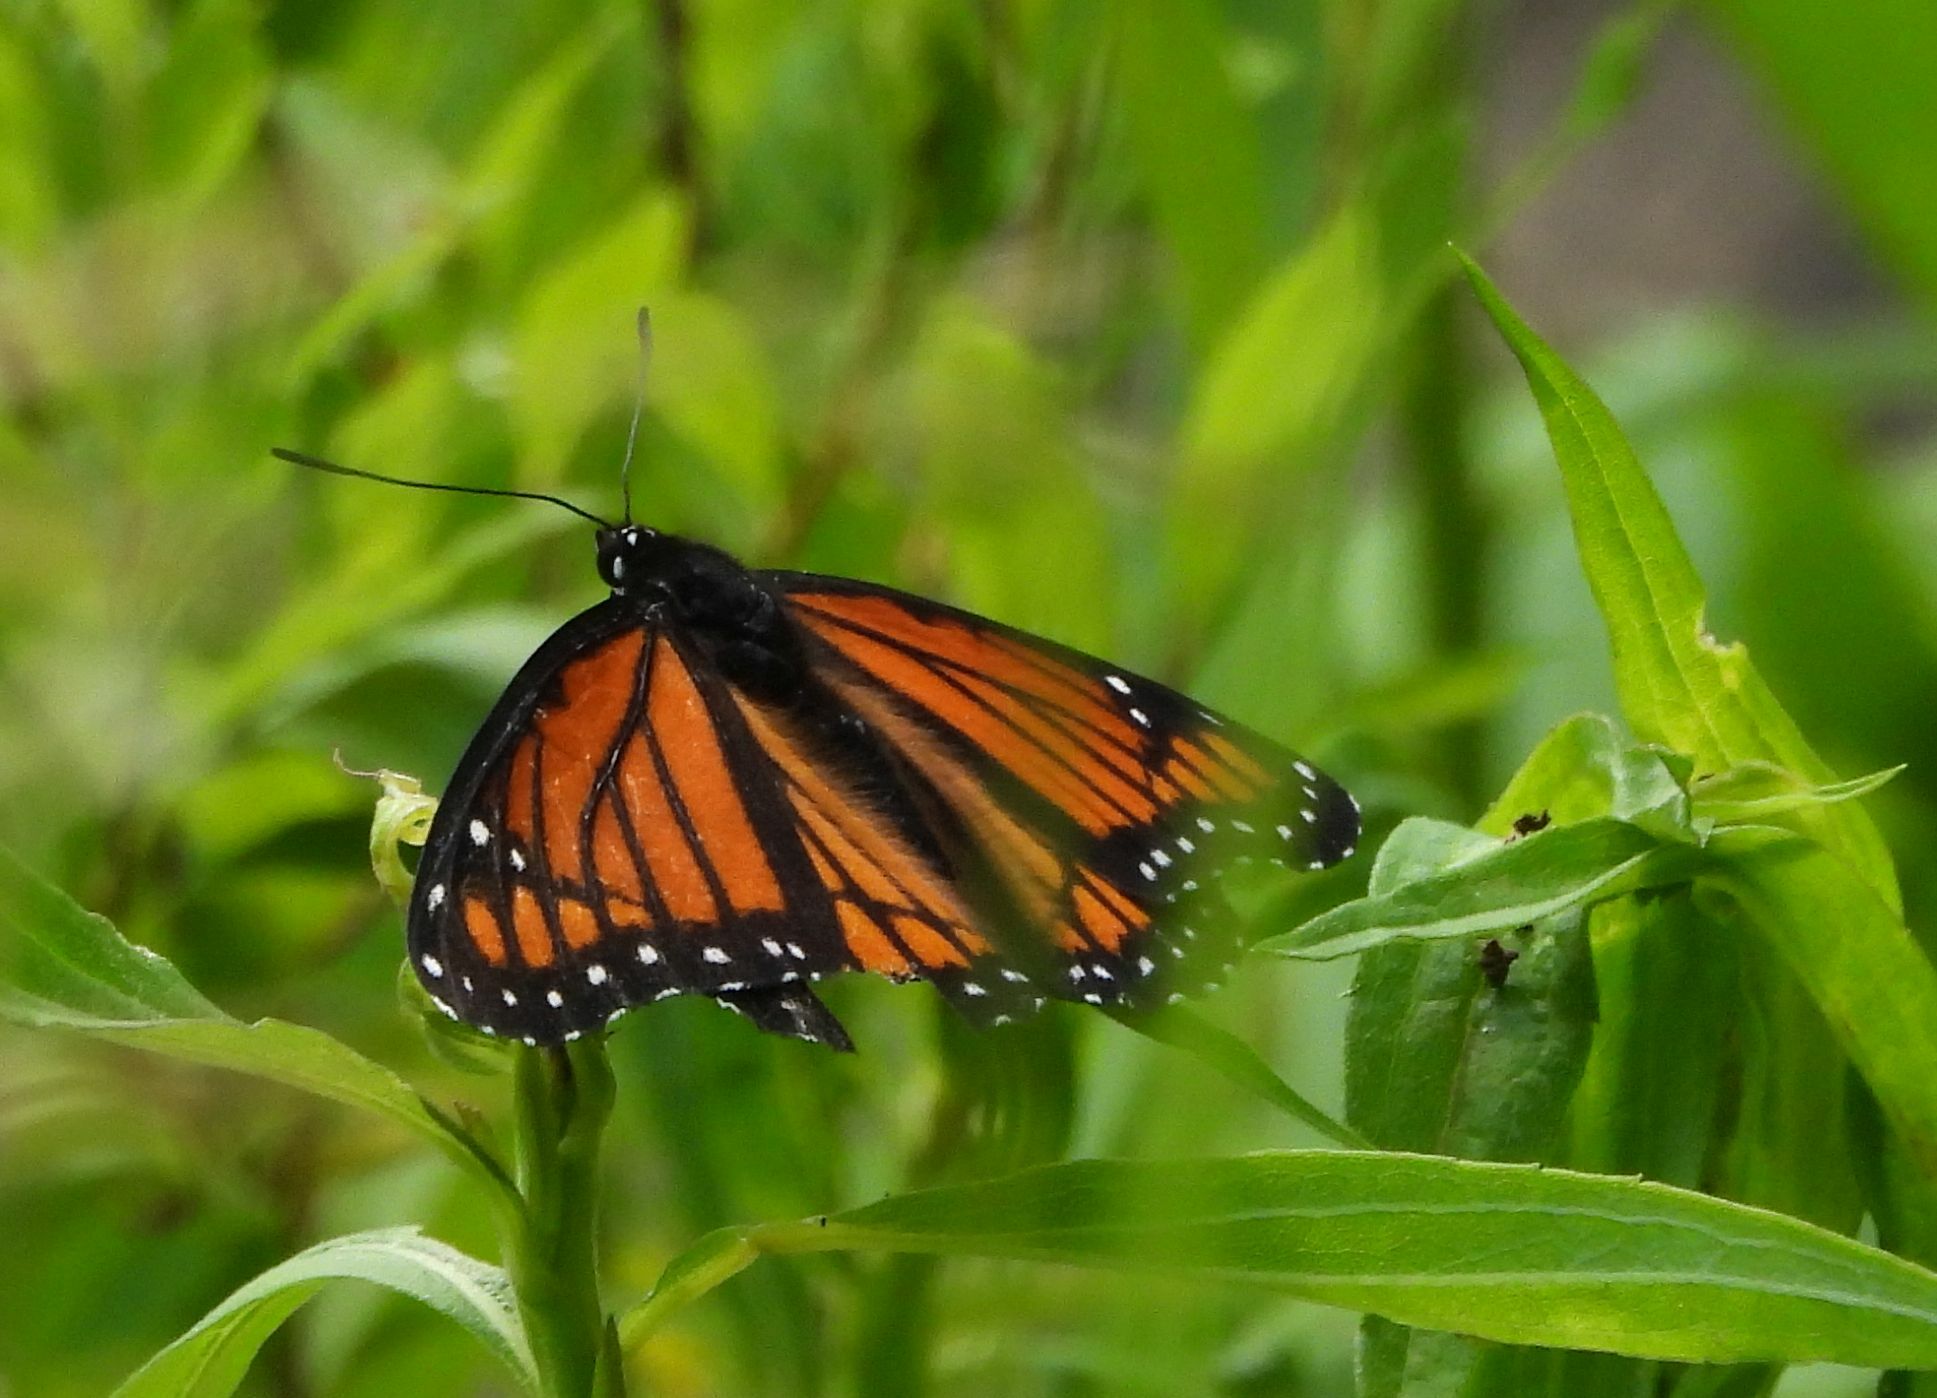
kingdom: Animalia
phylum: Arthropoda
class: Insecta
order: Lepidoptera
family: Nymphalidae
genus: Limenitis
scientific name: Limenitis archippus
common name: Viceroy
